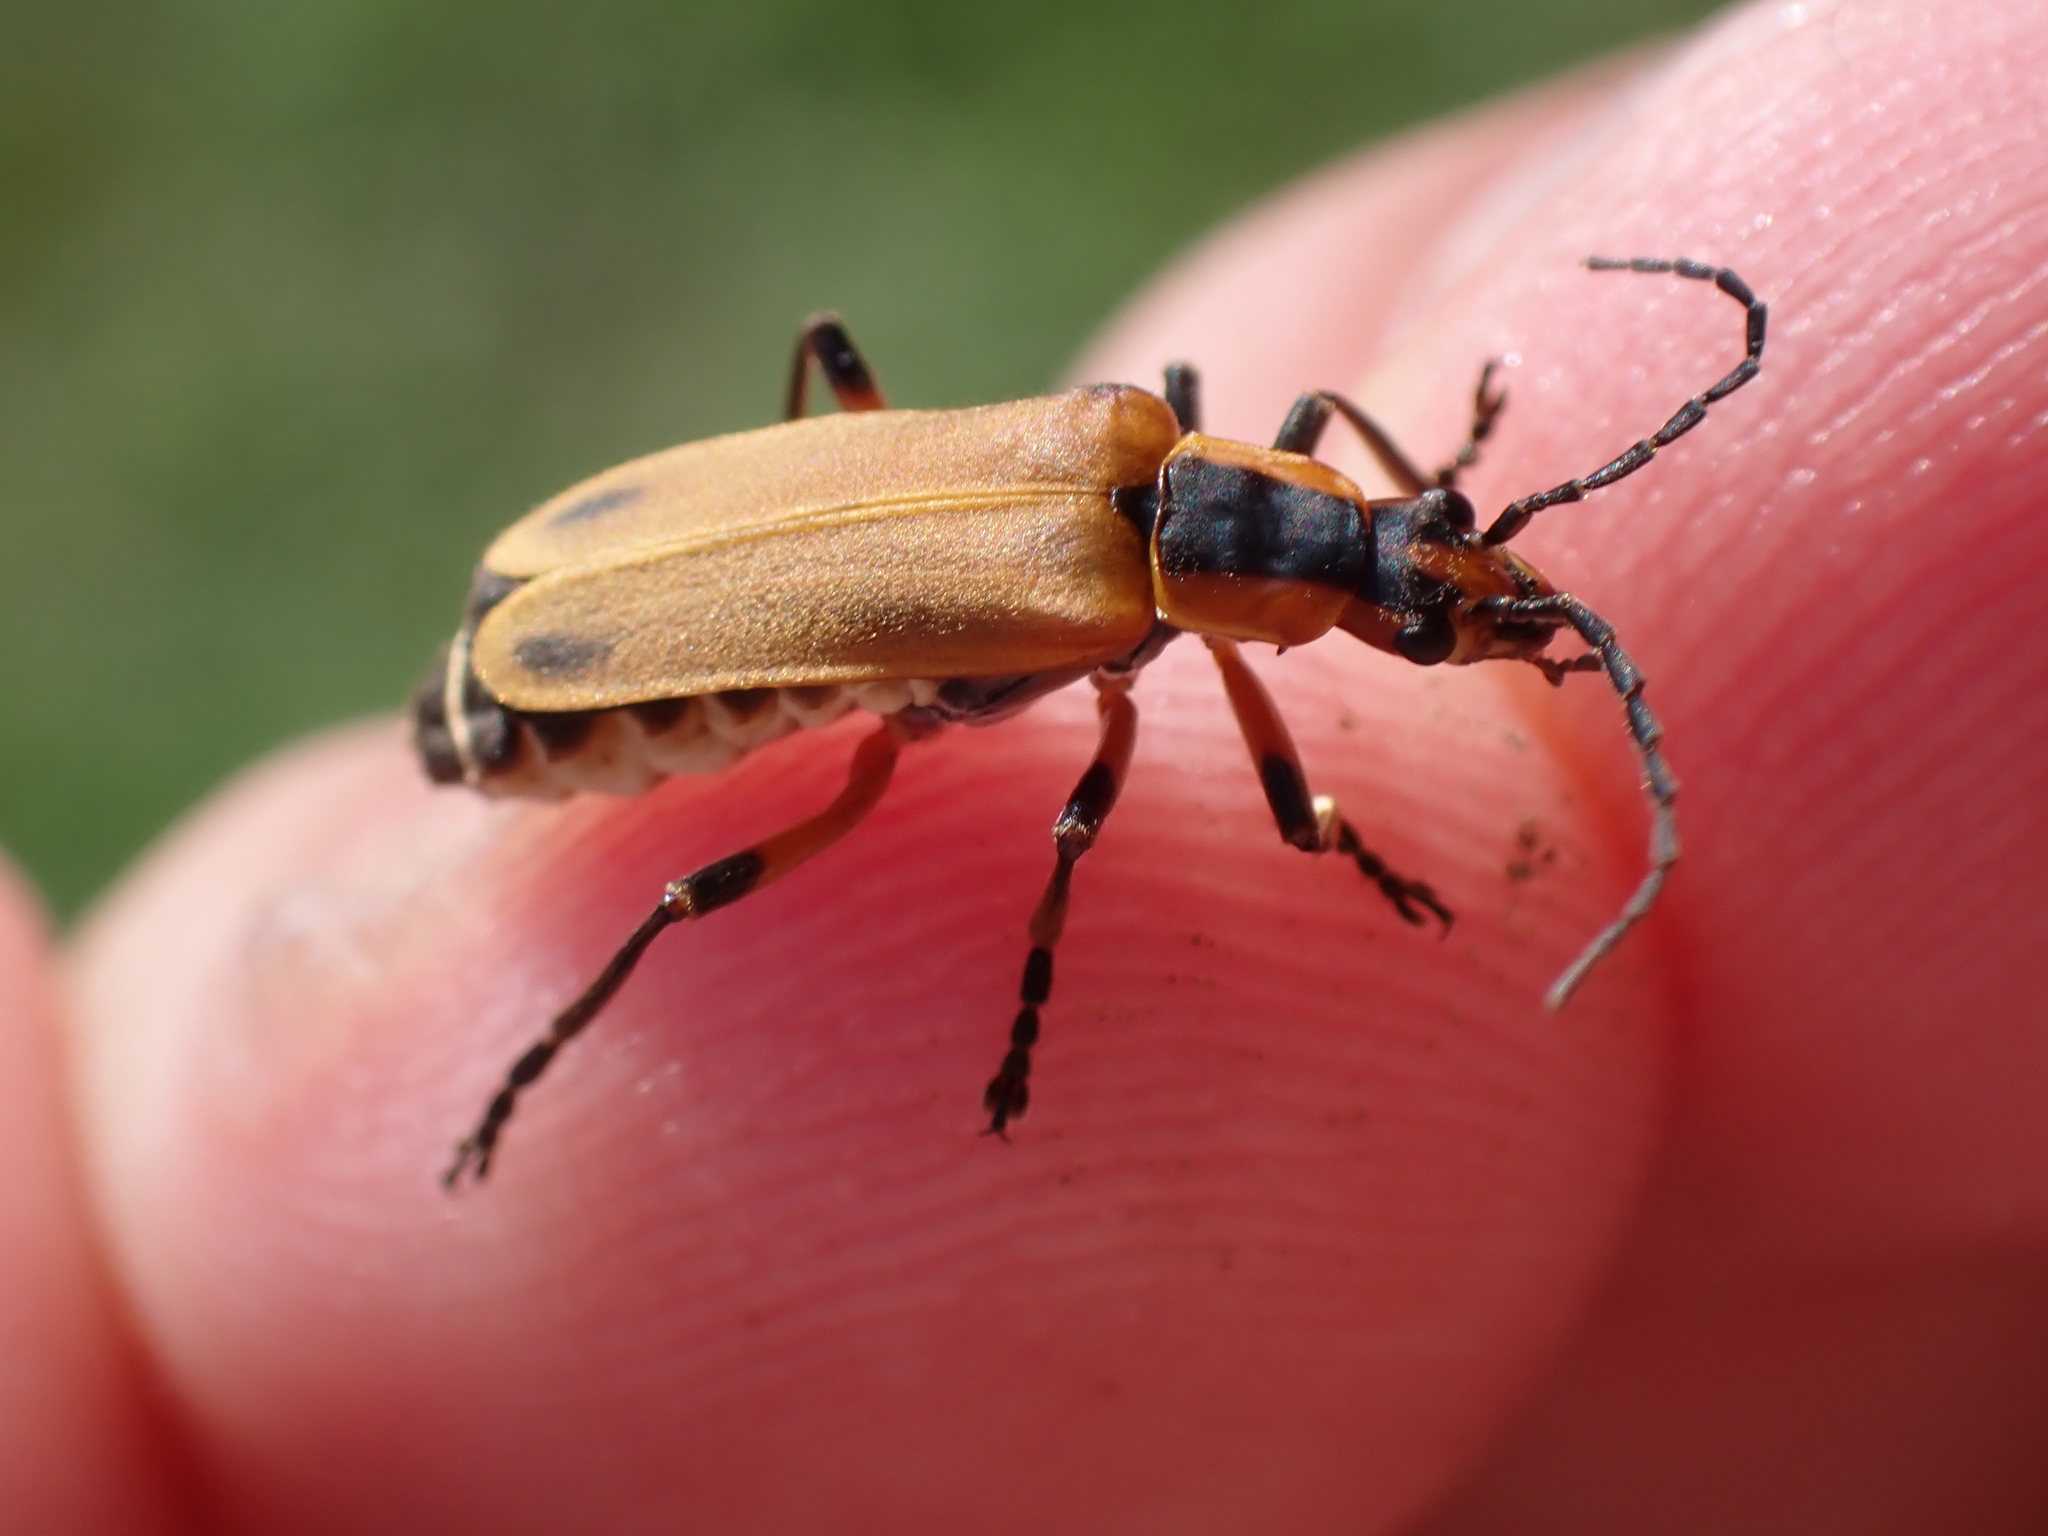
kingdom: Animalia
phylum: Arthropoda
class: Insecta
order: Coleoptera
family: Cantharidae
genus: Chauliognathus
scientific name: Chauliognathus marginatus
